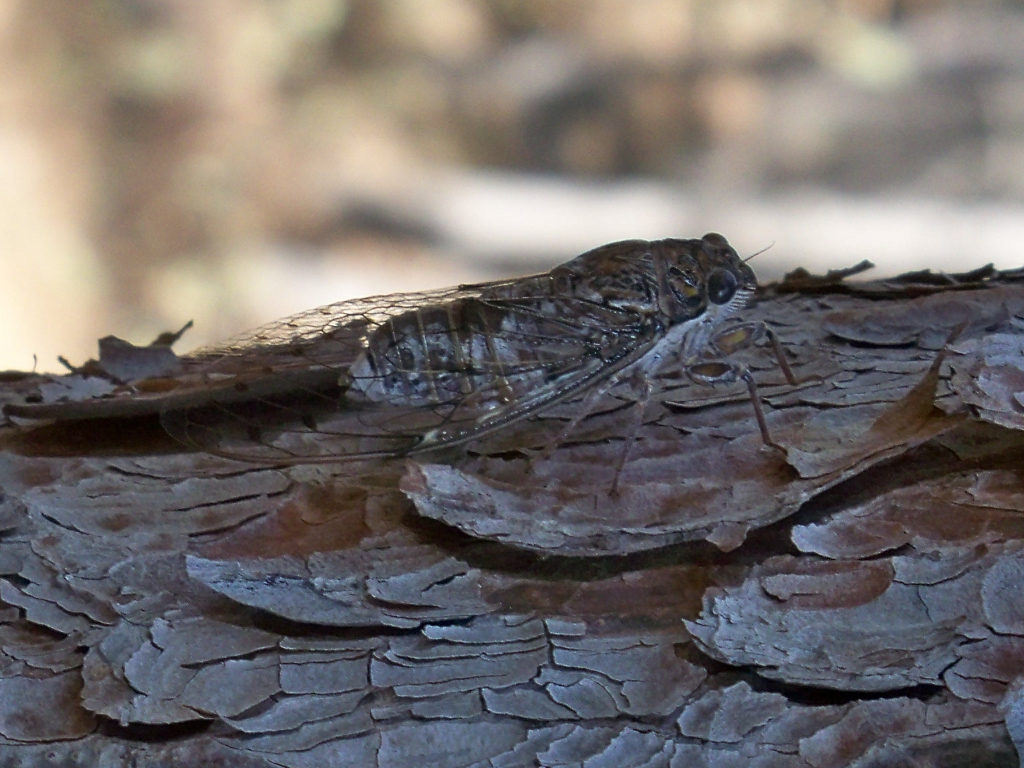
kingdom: Animalia
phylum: Arthropoda
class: Insecta
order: Hemiptera
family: Cicadidae
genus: Cicada
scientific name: Cicada orni
